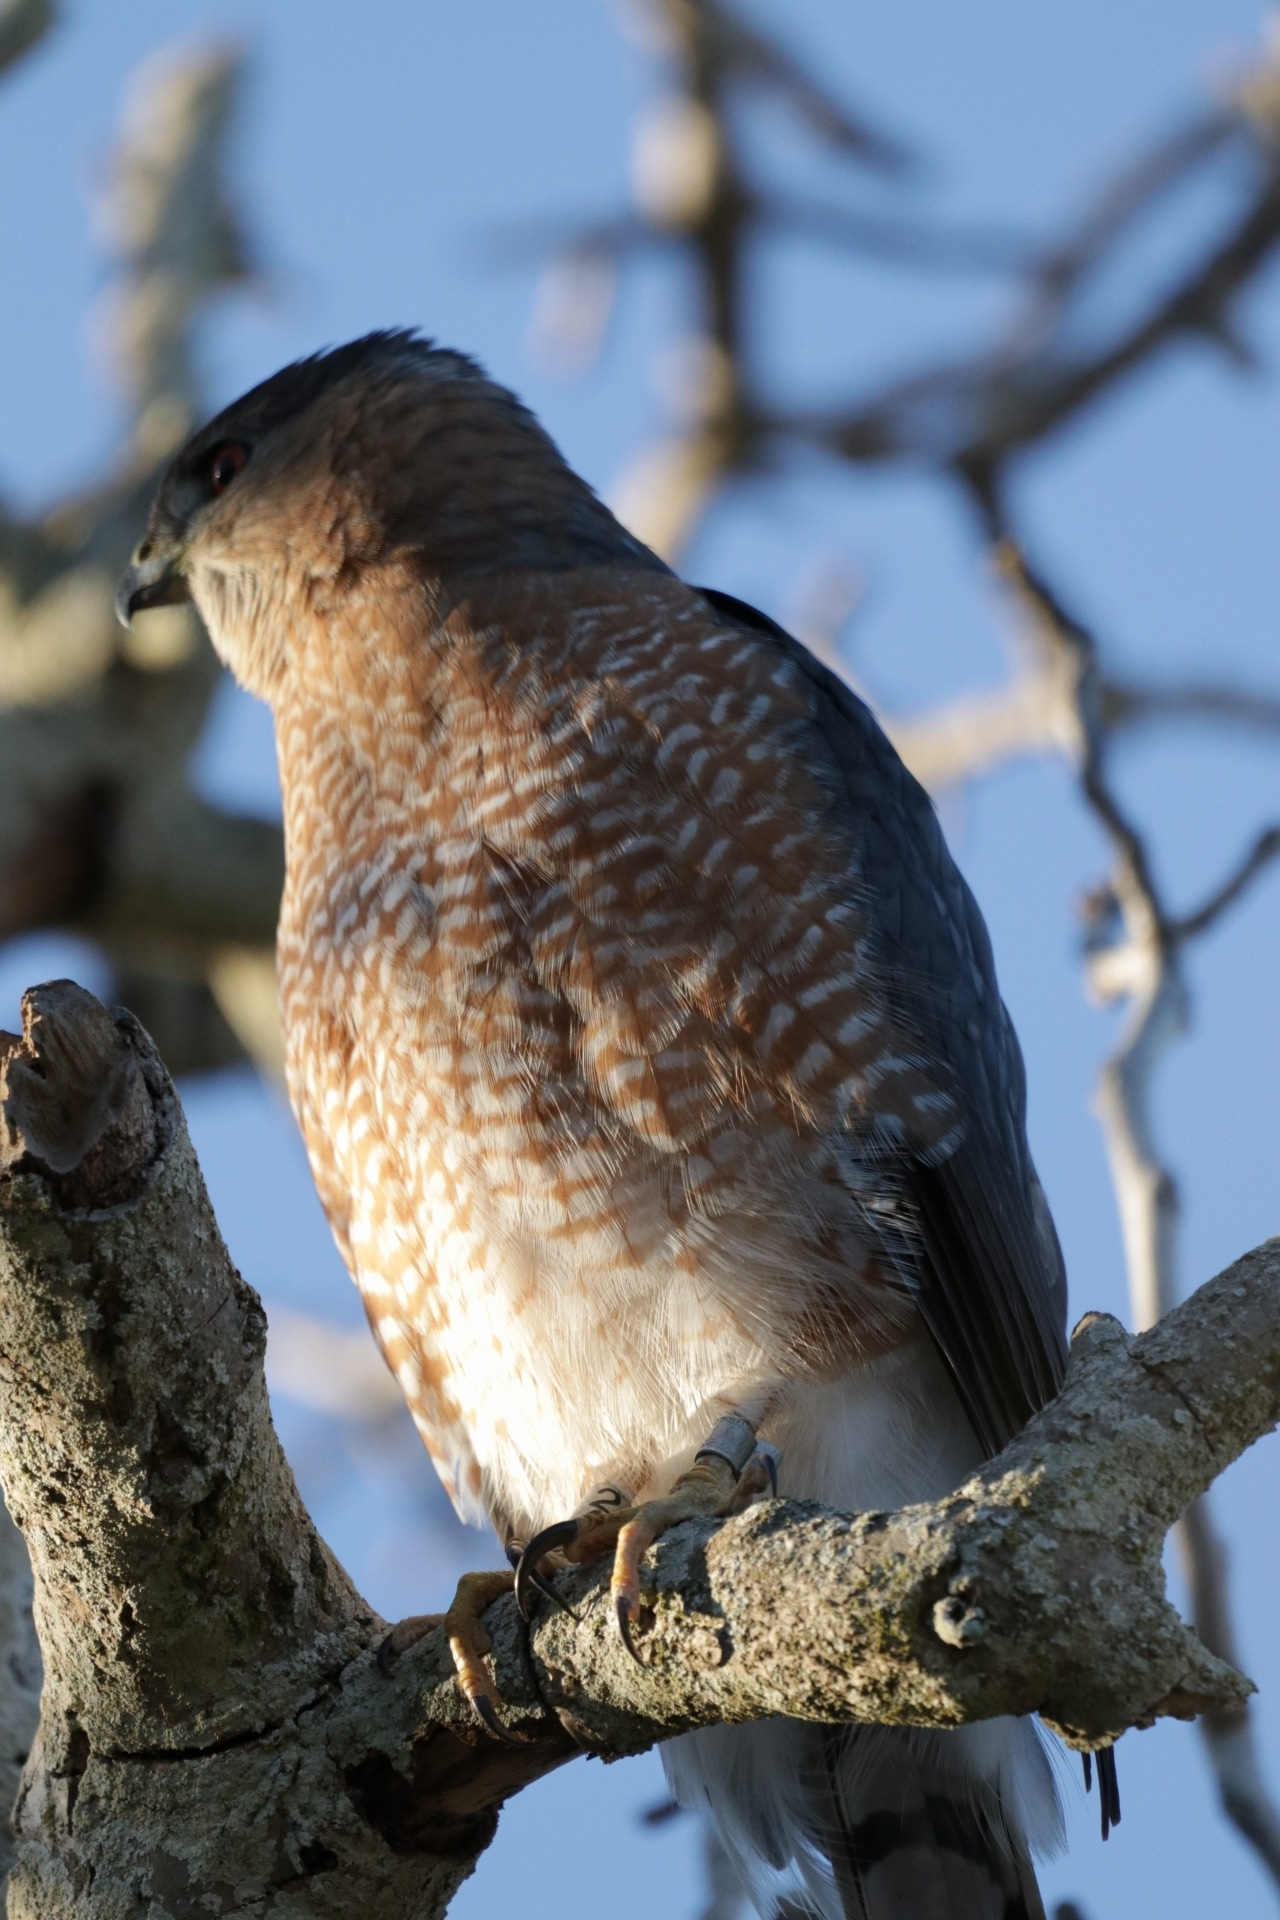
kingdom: Animalia
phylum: Chordata
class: Aves
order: Accipitriformes
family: Accipitridae
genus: Accipiter
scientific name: Accipiter cooperii
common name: Cooper's hawk
